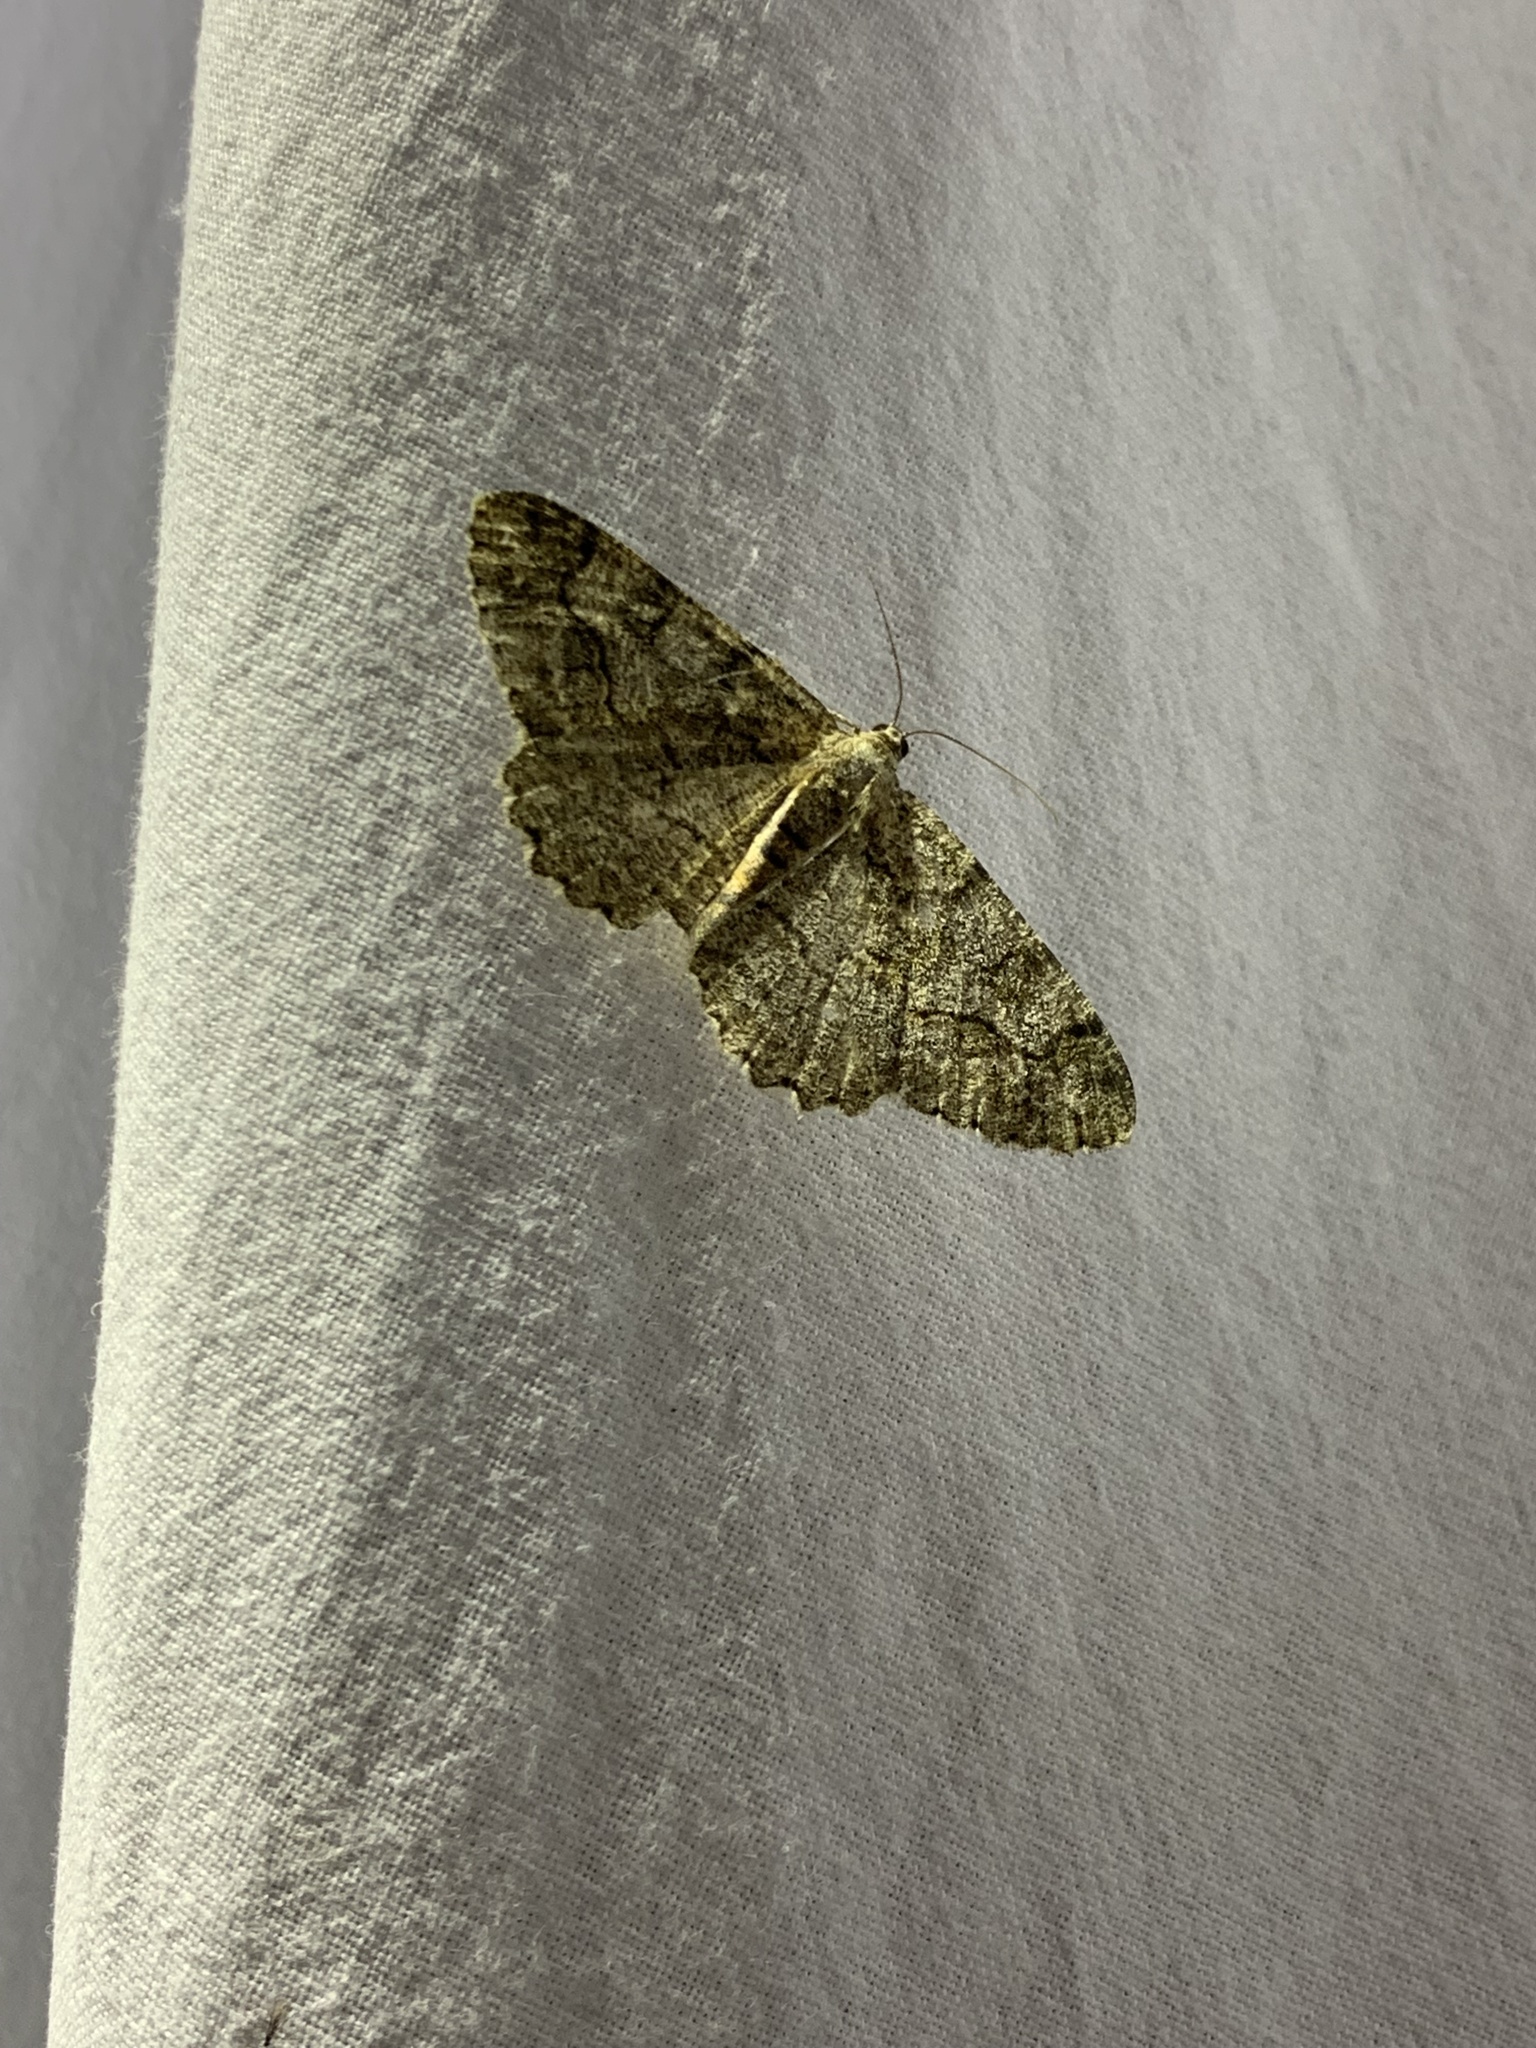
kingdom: Animalia
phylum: Arthropoda
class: Insecta
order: Lepidoptera
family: Geometridae
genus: Alcis
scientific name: Alcis repandata
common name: Mottled beauty
